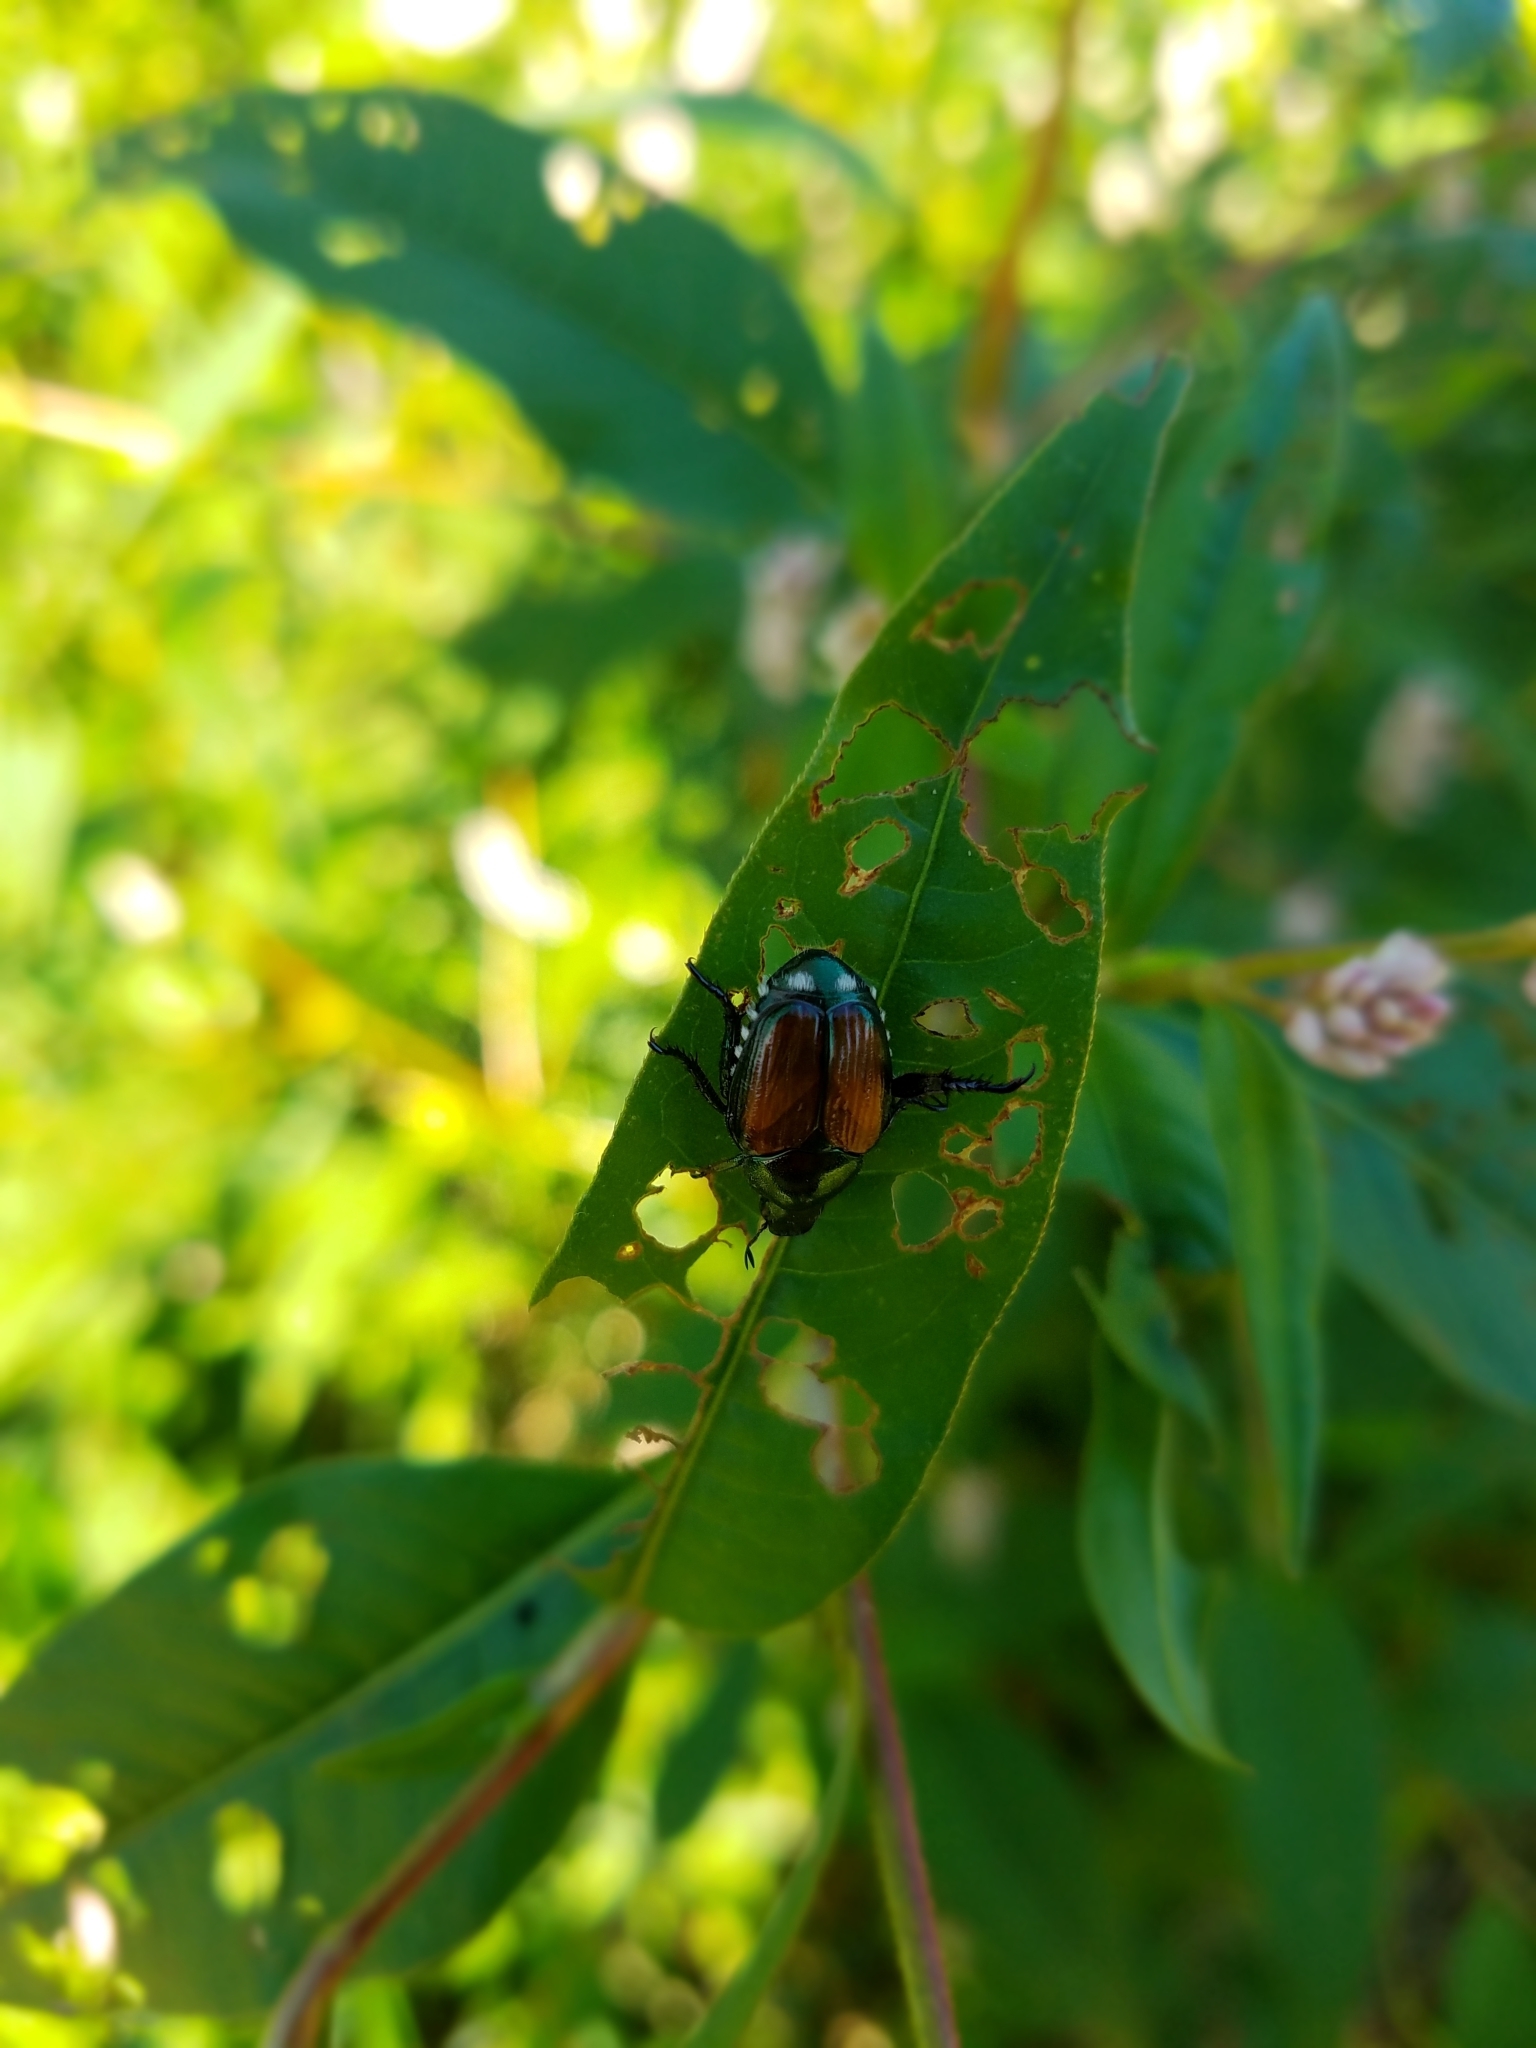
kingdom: Animalia
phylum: Arthropoda
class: Insecta
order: Coleoptera
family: Scarabaeidae
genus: Popillia
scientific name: Popillia japonica
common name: Japanese beetle
